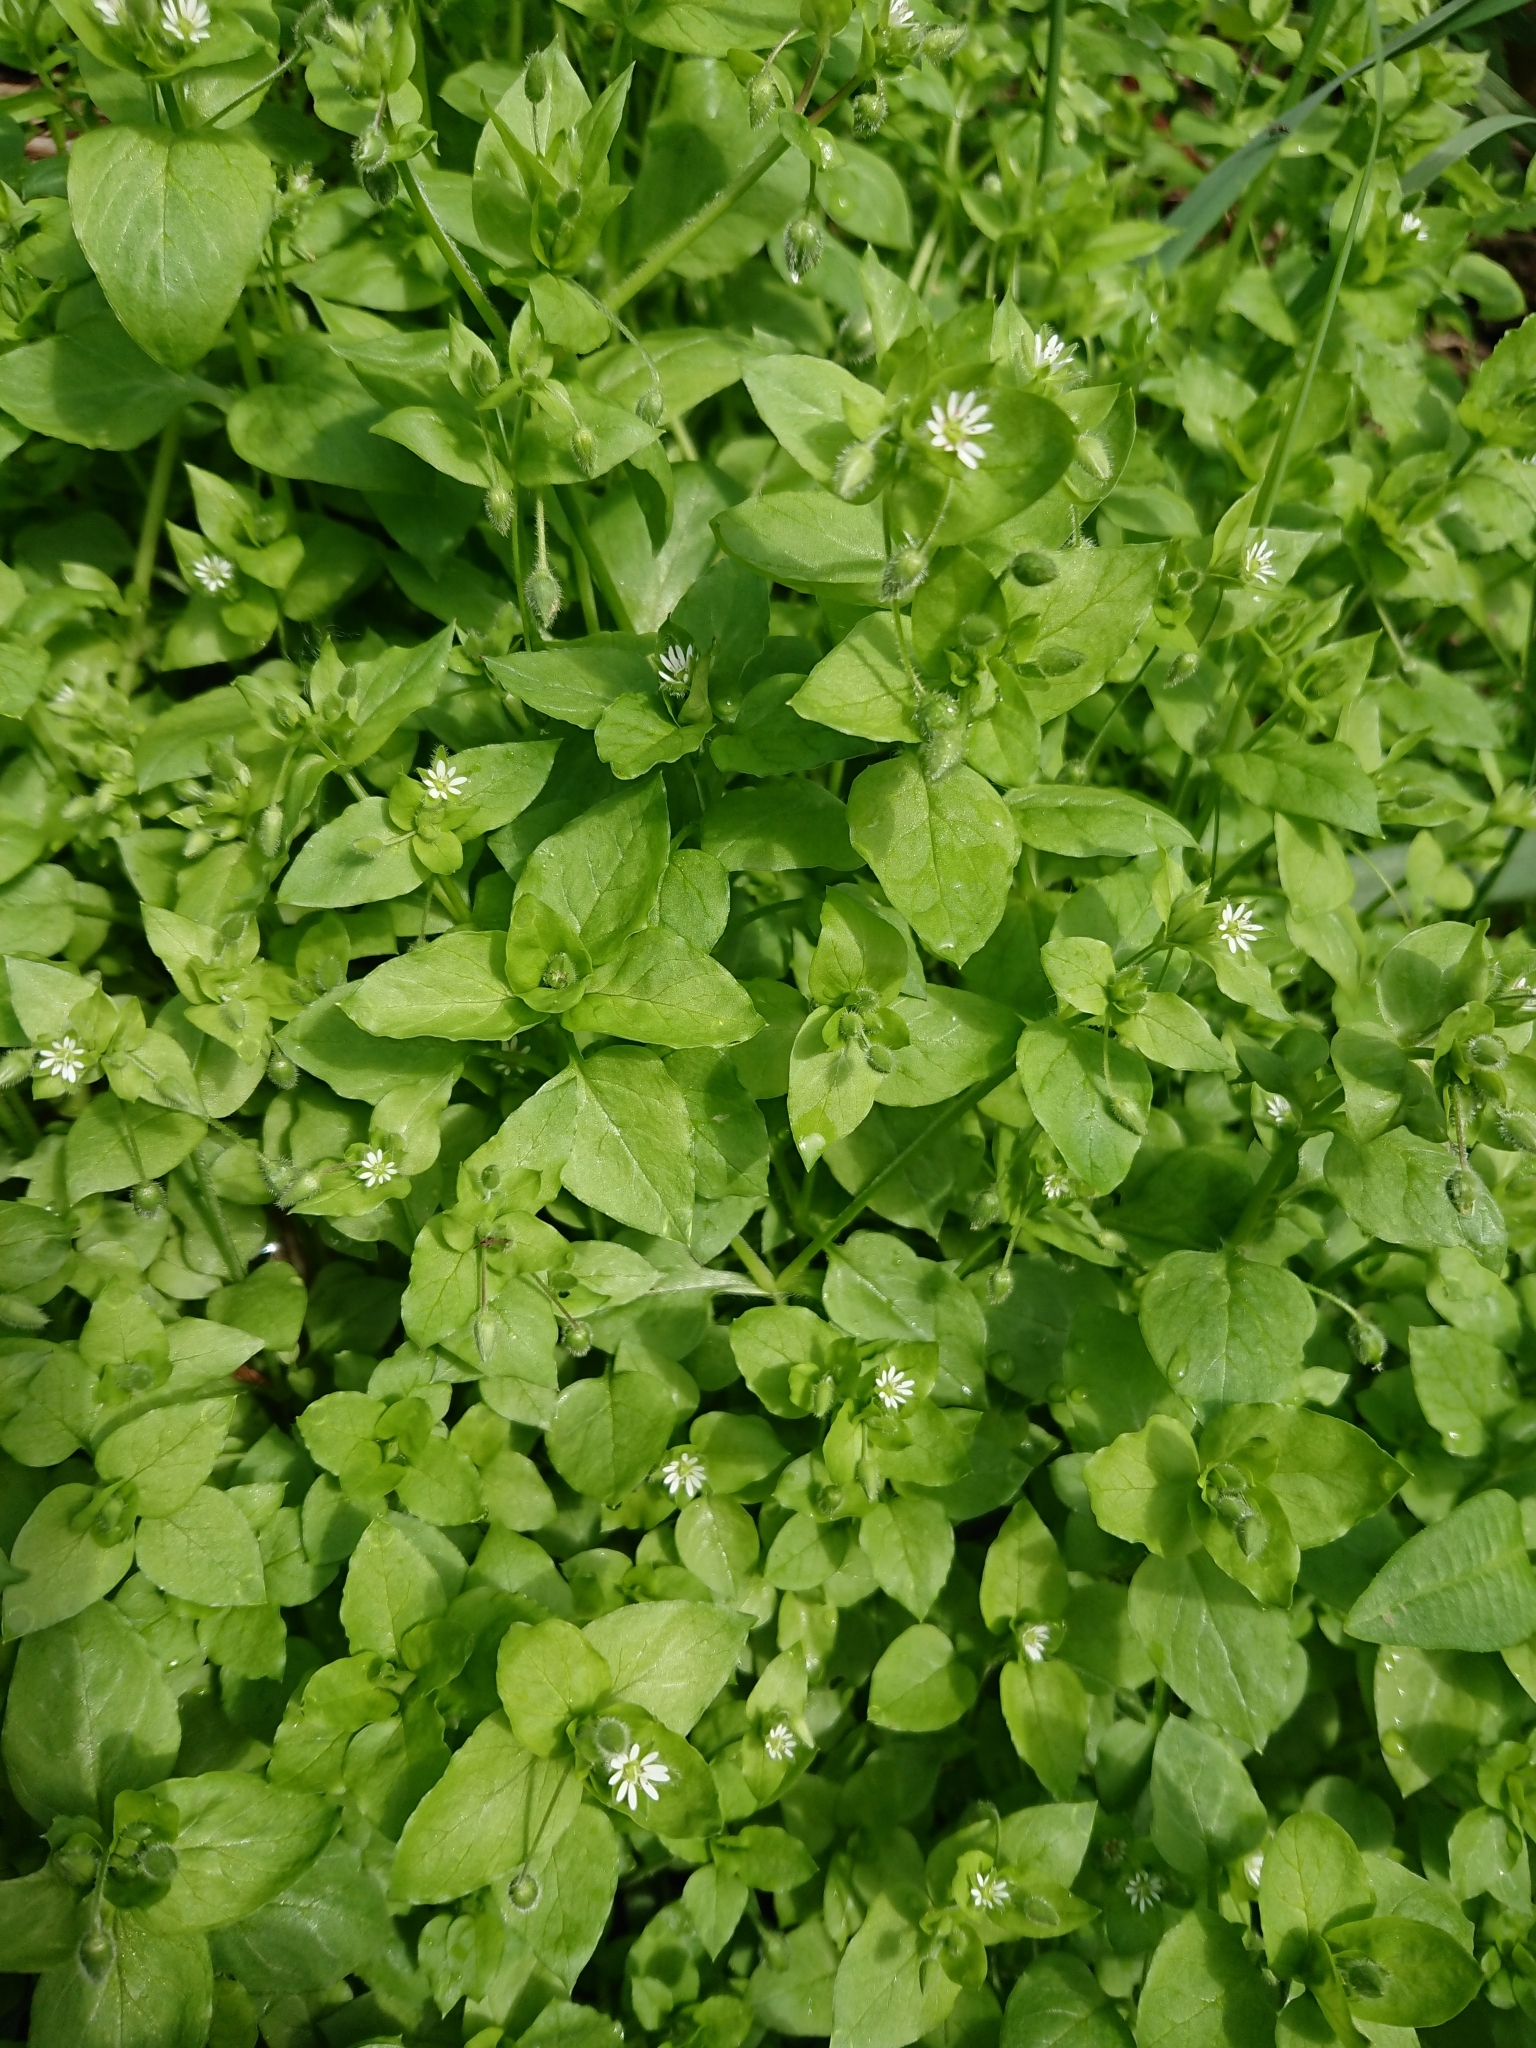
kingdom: Plantae
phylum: Tracheophyta
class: Magnoliopsida
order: Caryophyllales
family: Caryophyllaceae
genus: Stellaria
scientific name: Stellaria media
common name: Common chickweed
